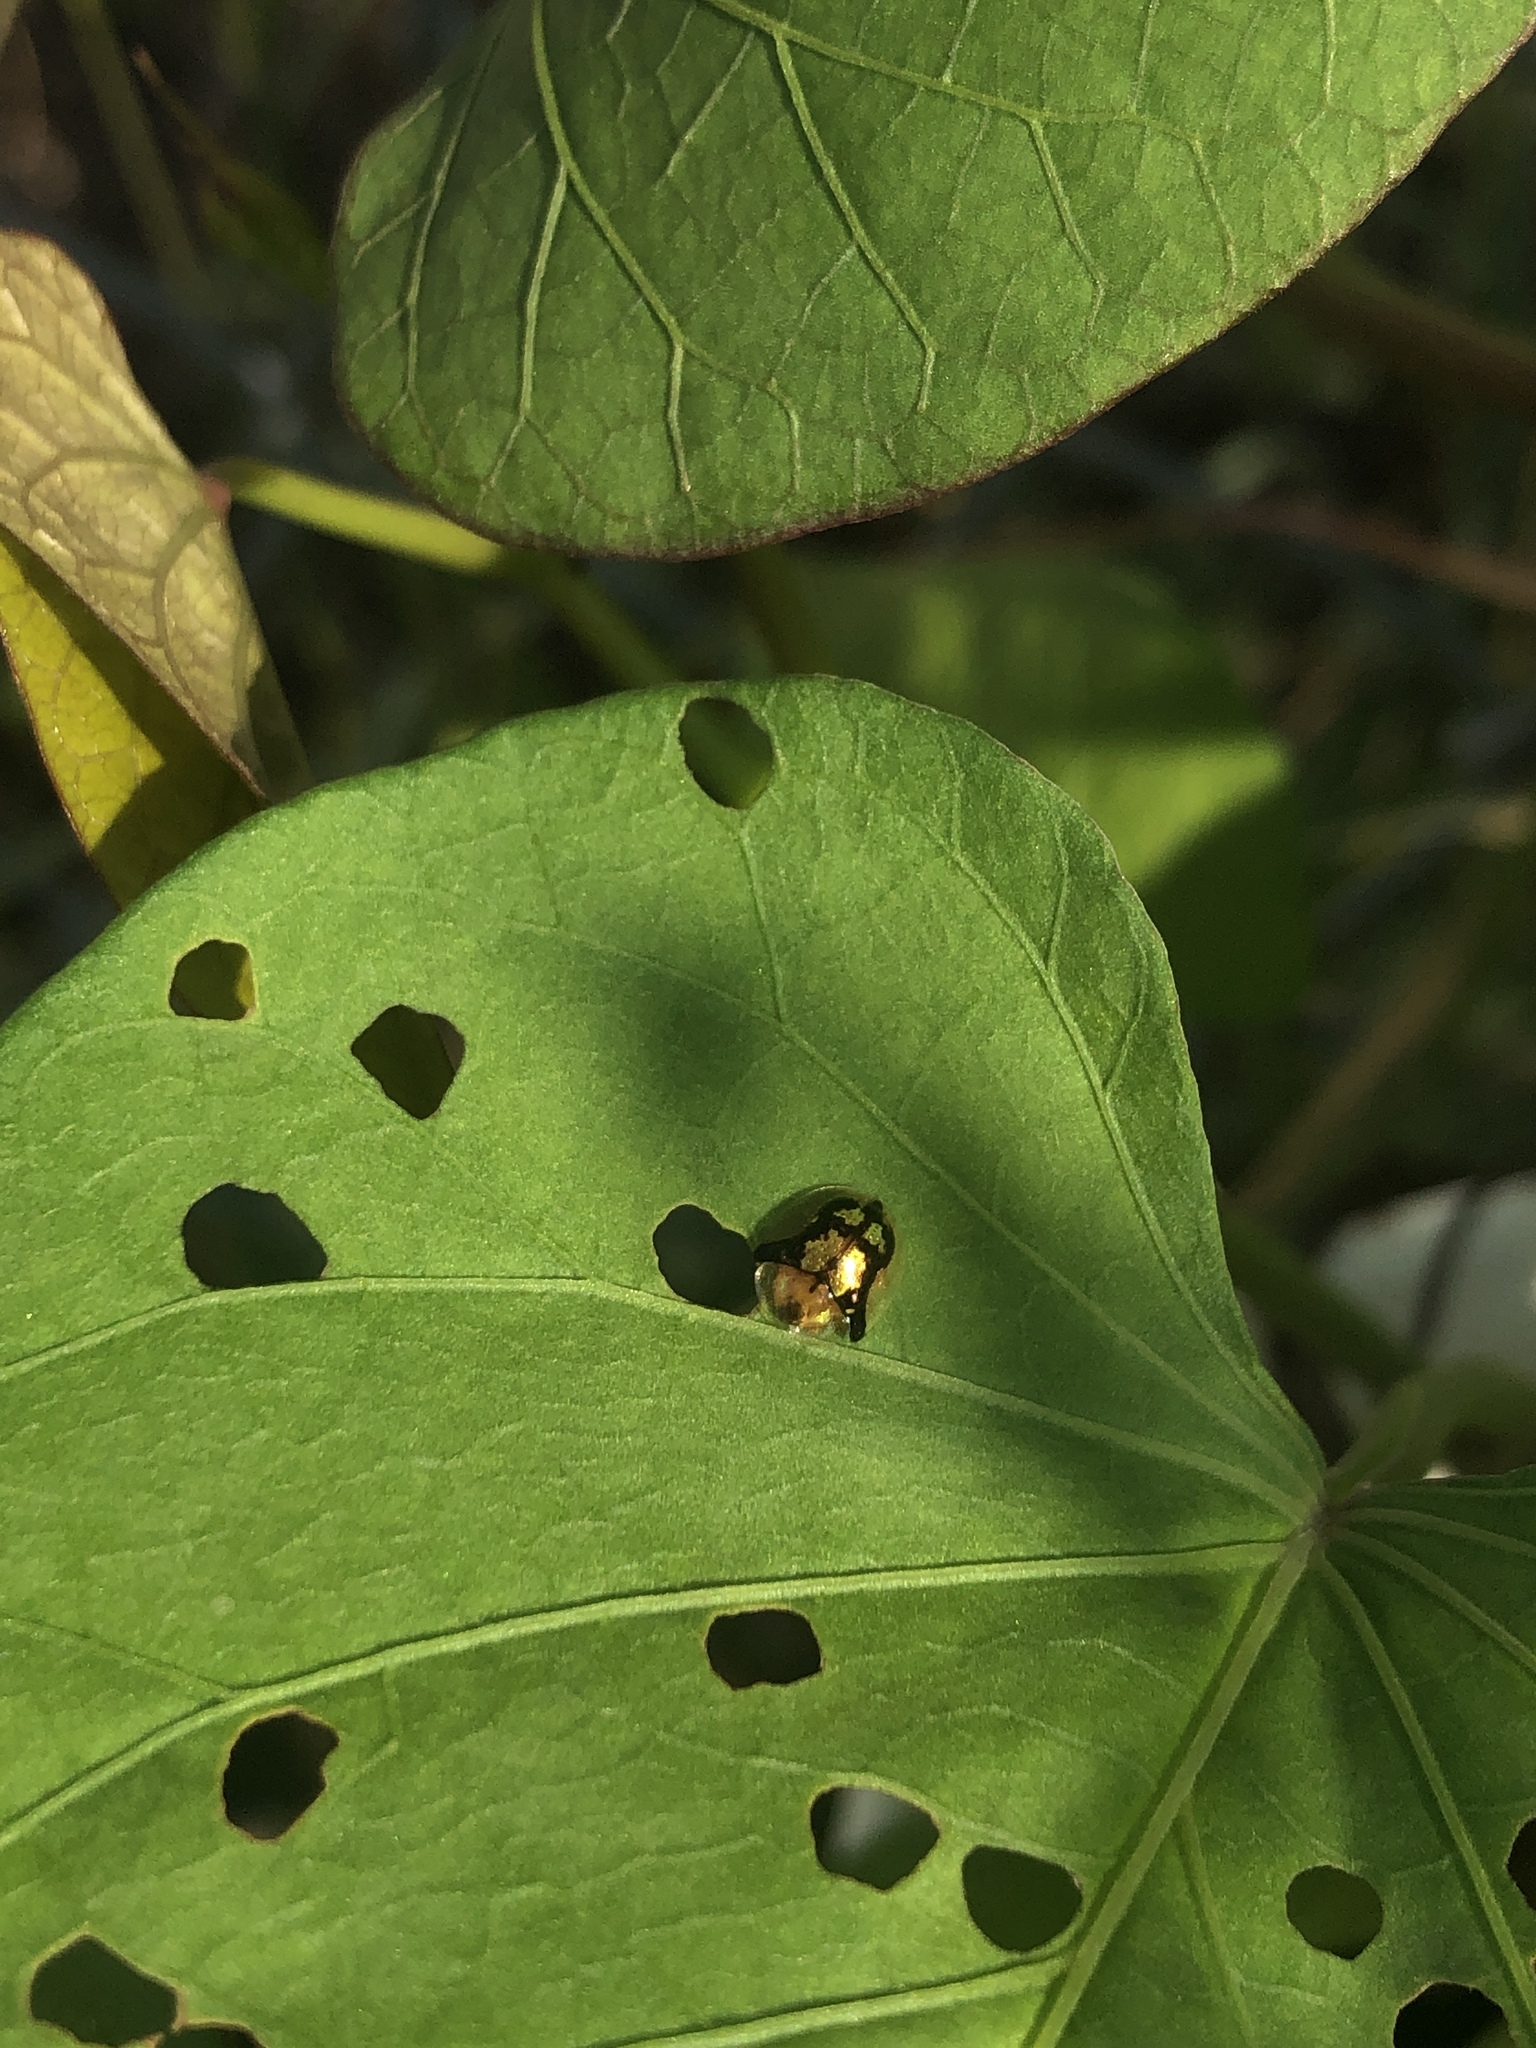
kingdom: Animalia
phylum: Arthropoda
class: Insecta
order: Coleoptera
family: Chrysomelidae
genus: Deloyala
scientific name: Deloyala guttata
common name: Mottled tortoise beetle
